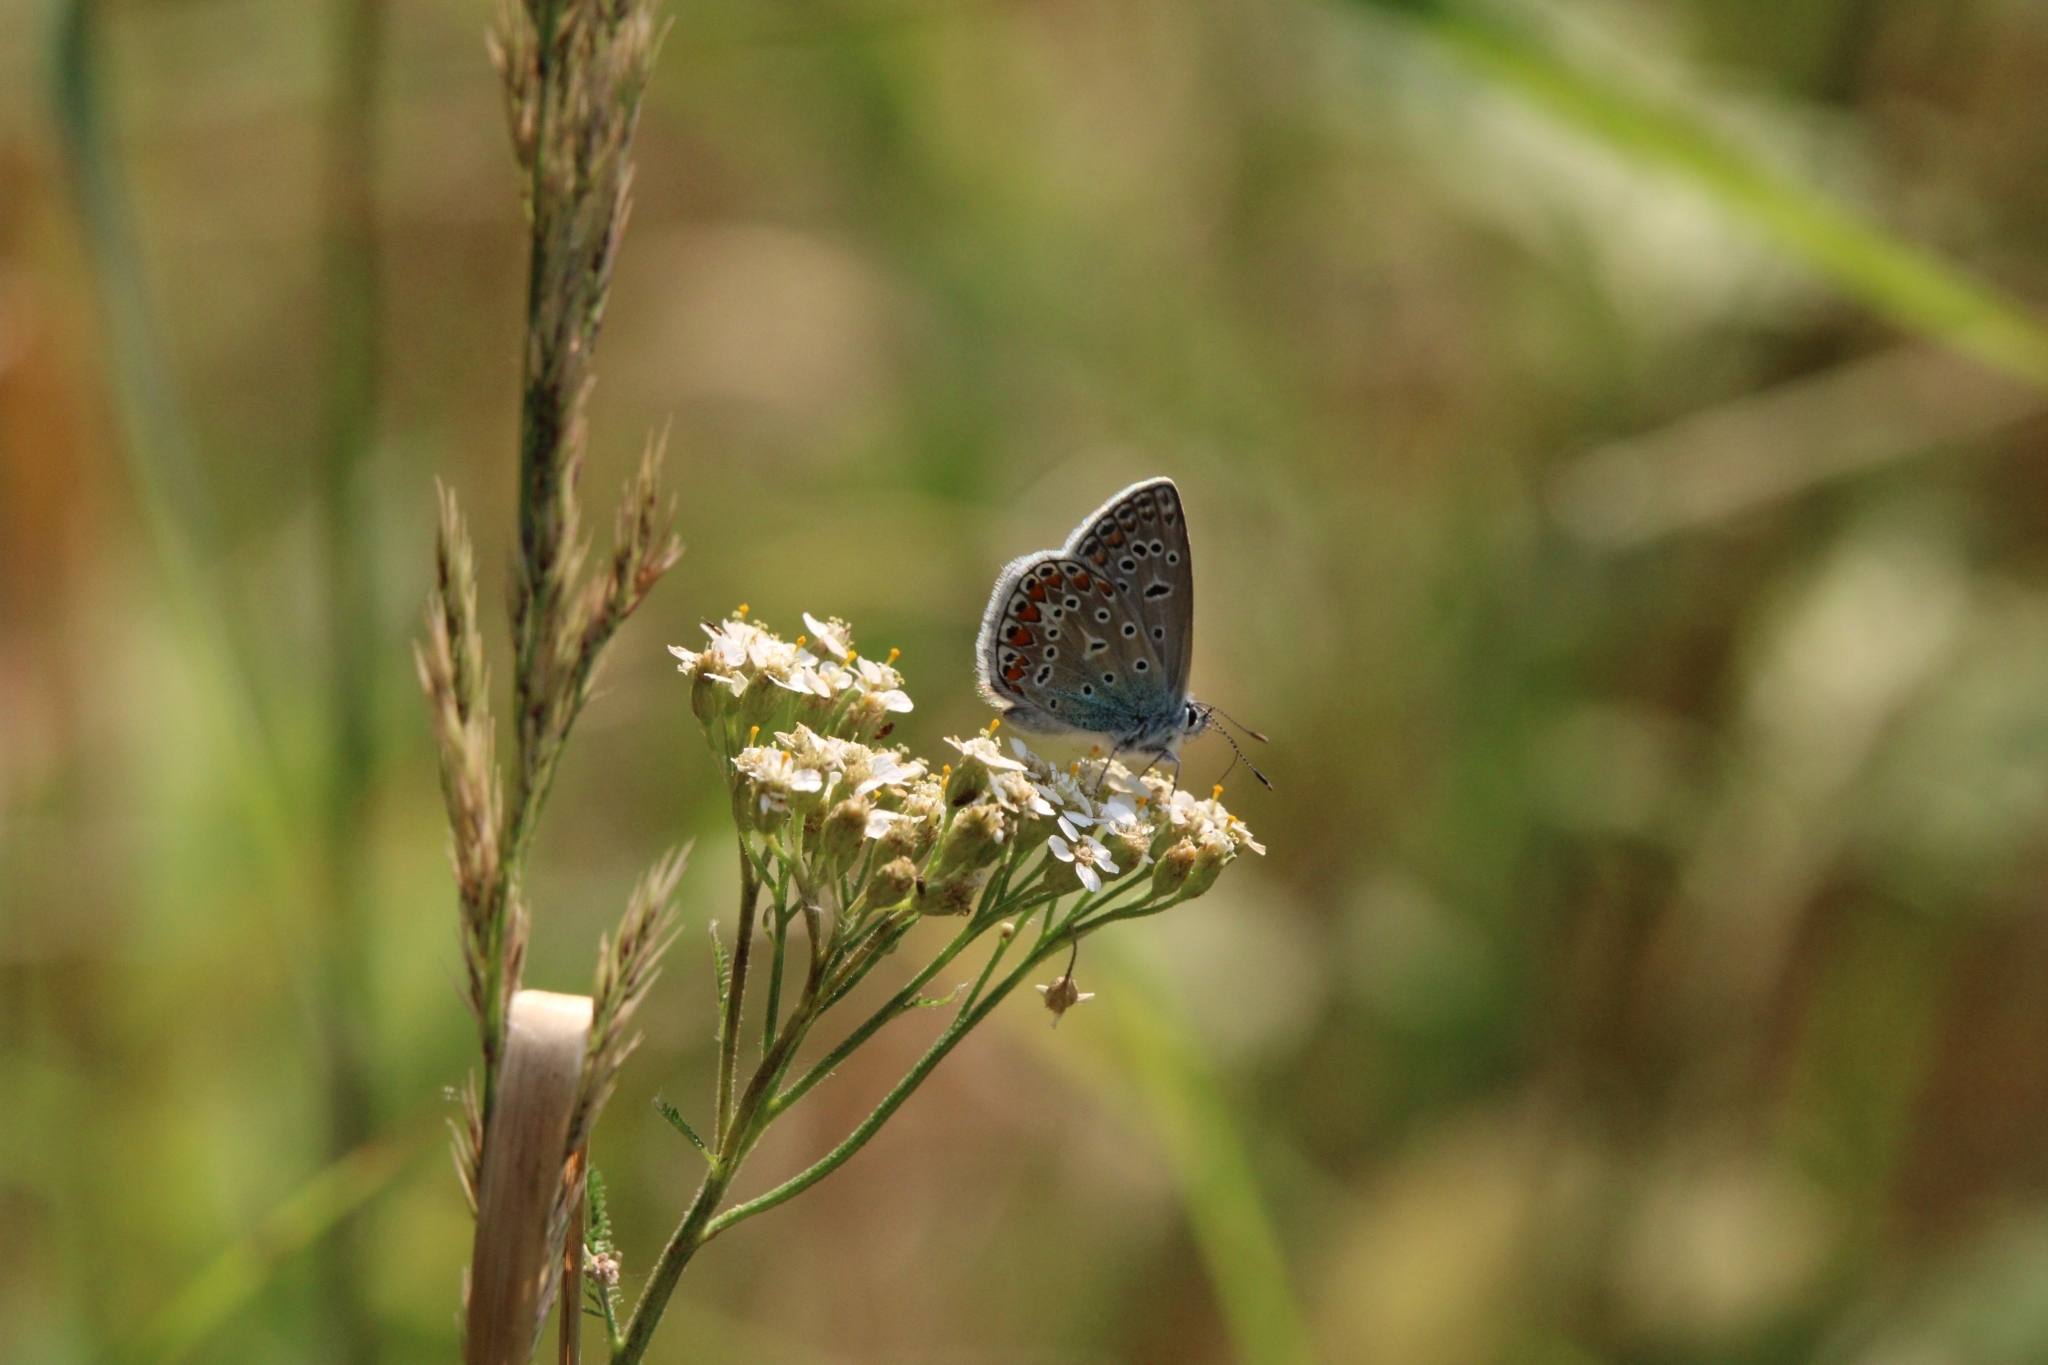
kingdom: Animalia
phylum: Arthropoda
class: Insecta
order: Lepidoptera
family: Lycaenidae
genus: Polyommatus
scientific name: Polyommatus icarus
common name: Common blue
